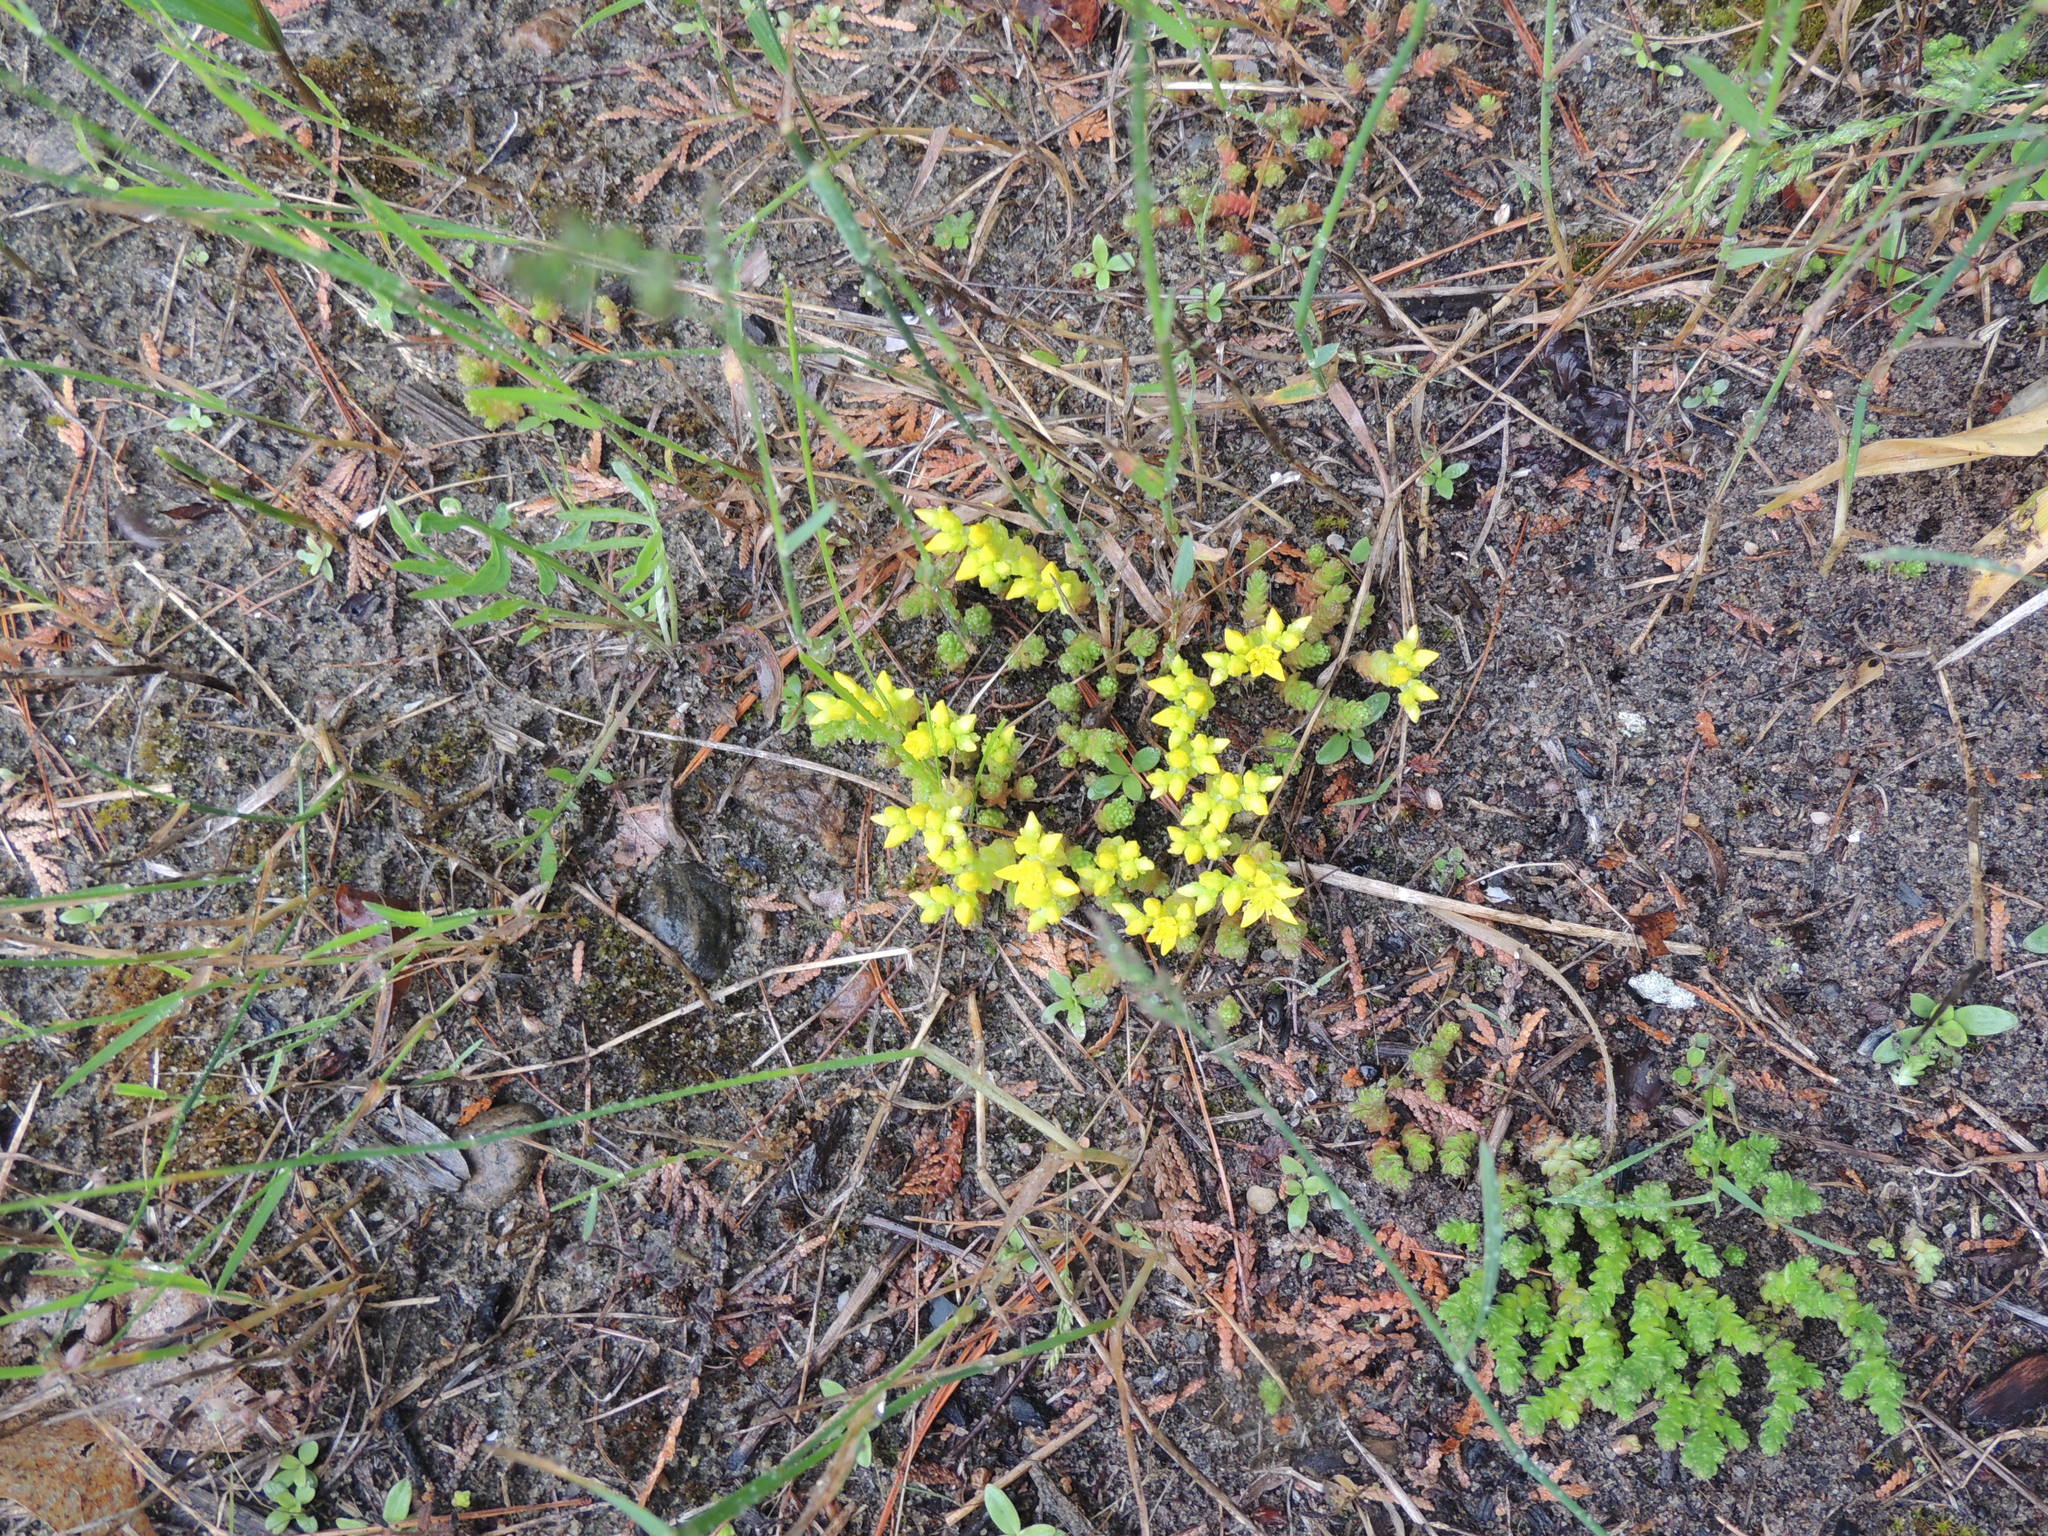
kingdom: Plantae
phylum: Tracheophyta
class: Magnoliopsida
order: Saxifragales
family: Crassulaceae
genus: Sedum
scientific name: Sedum acre
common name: Biting stonecrop
